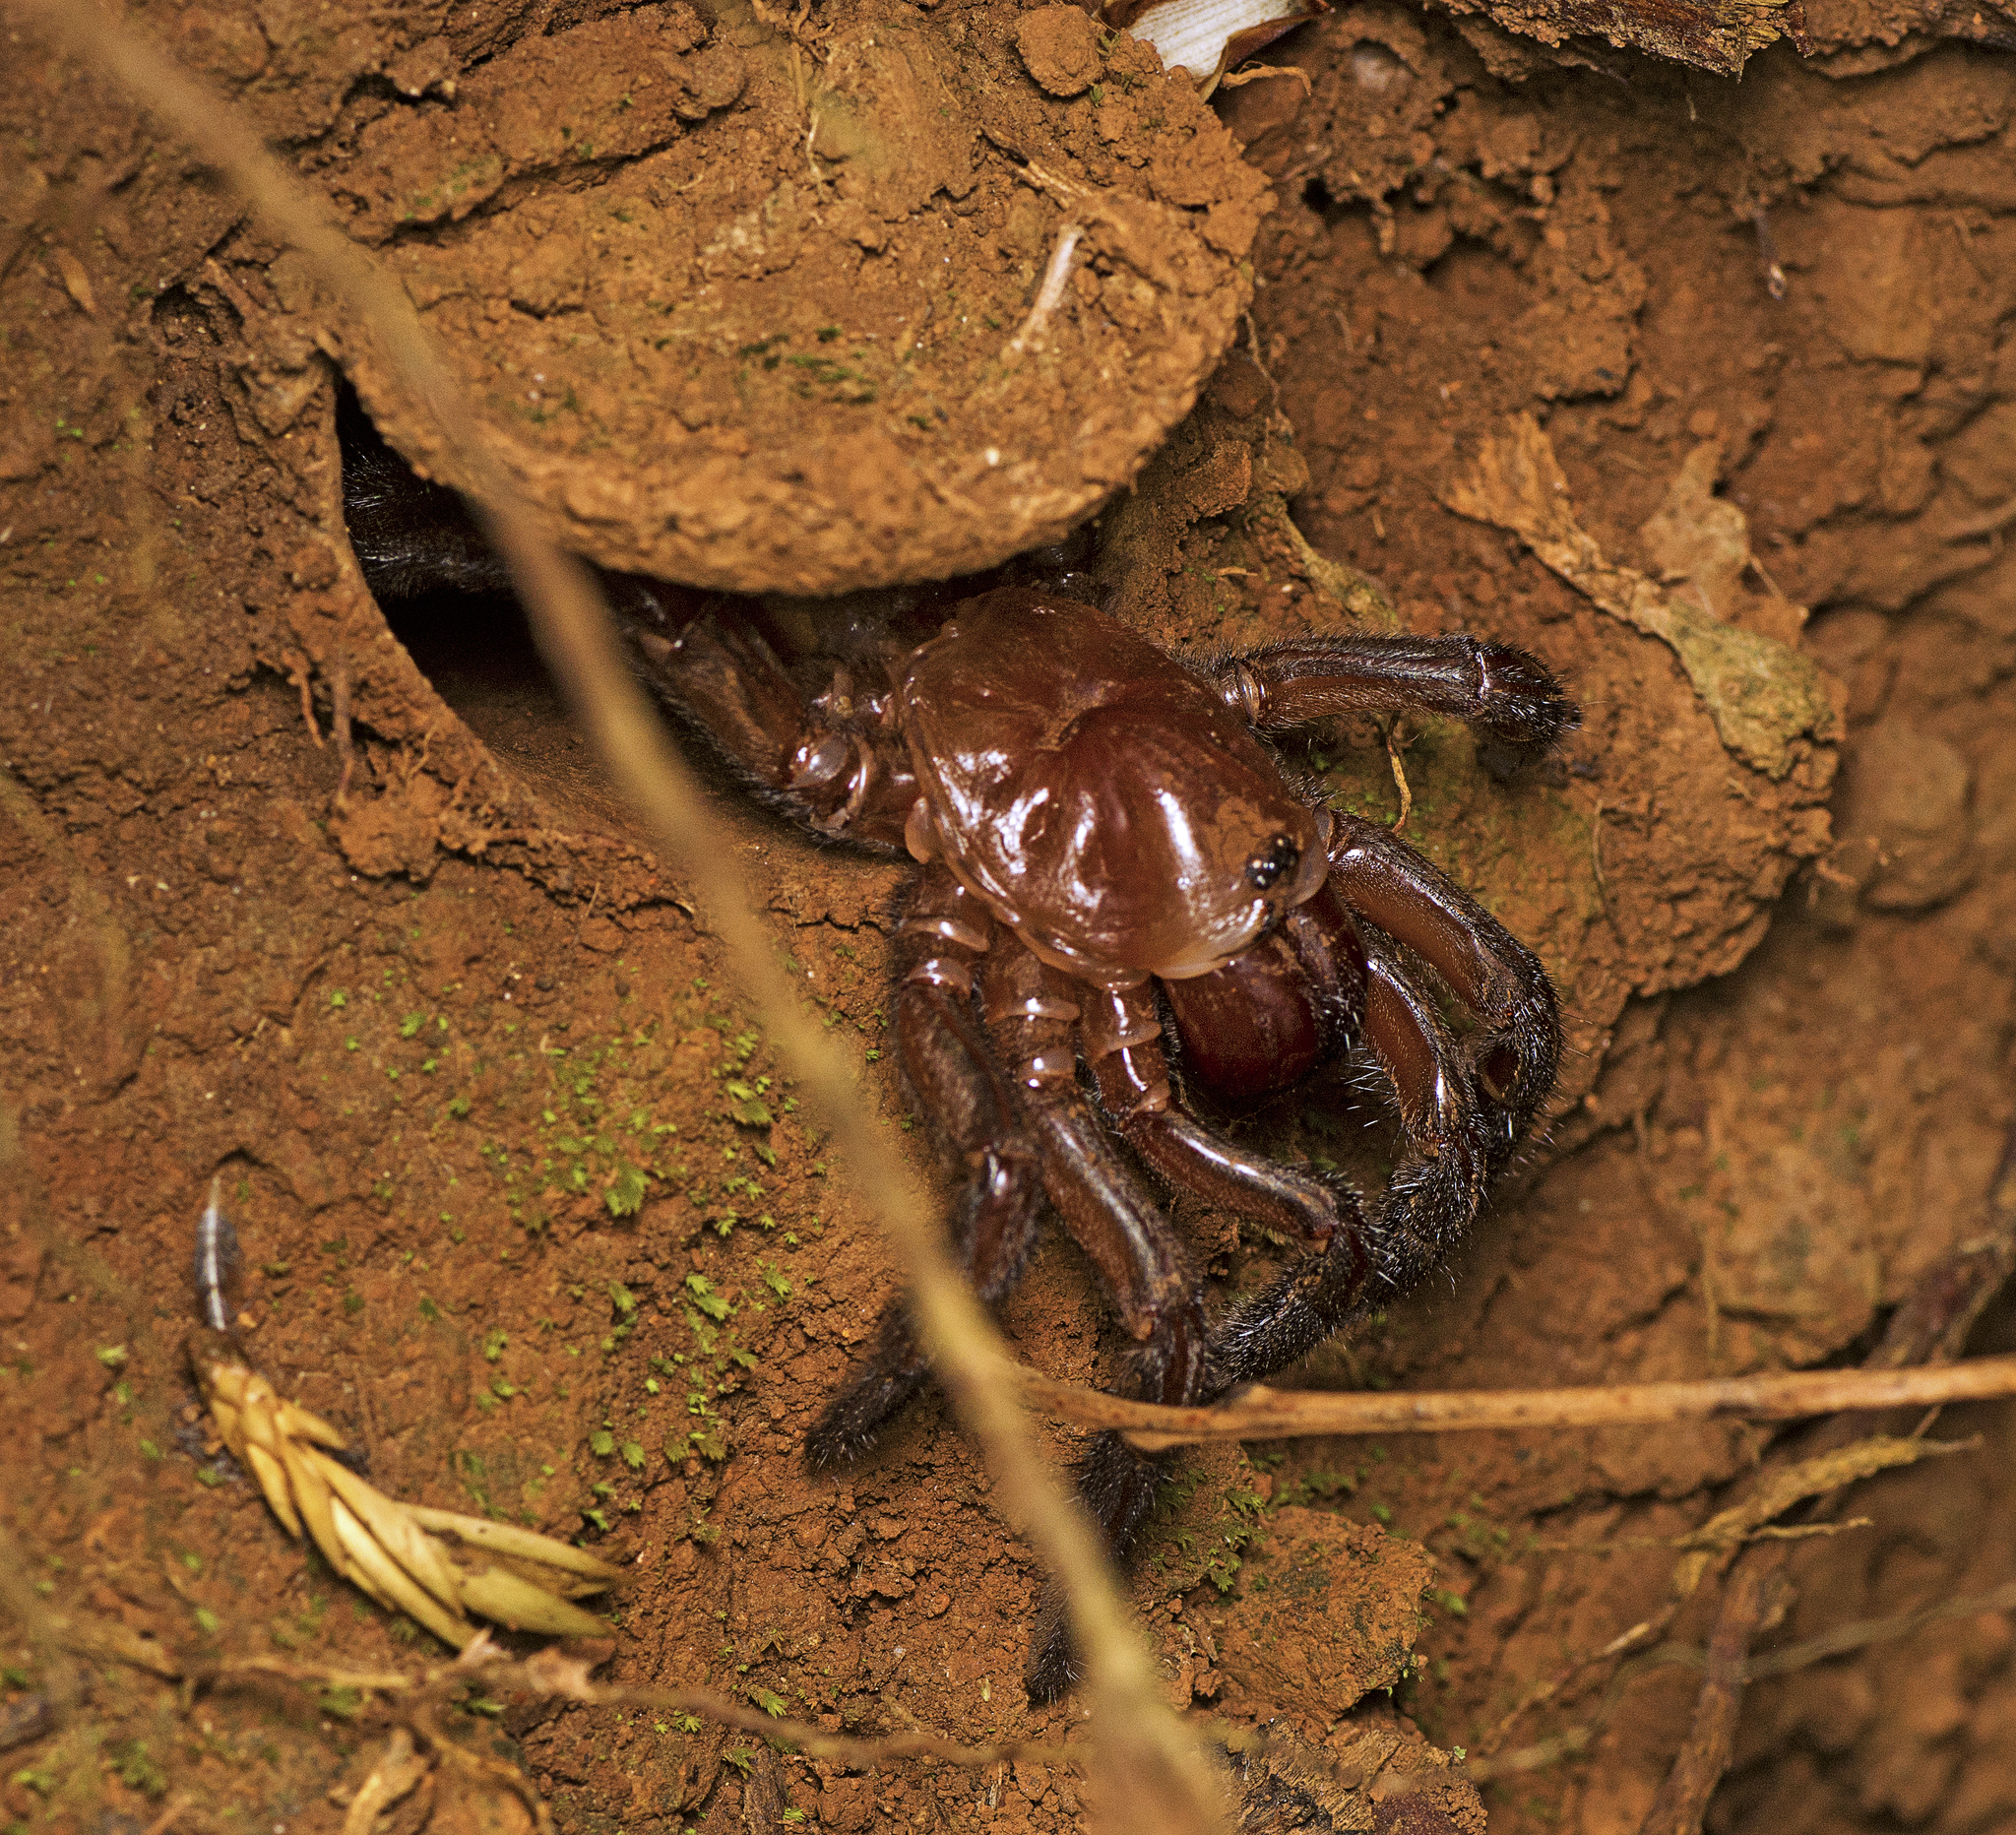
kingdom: Animalia
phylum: Arthropoda
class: Arachnida
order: Araneae
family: Idiopidae
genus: Euoplos
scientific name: Euoplos regalis
